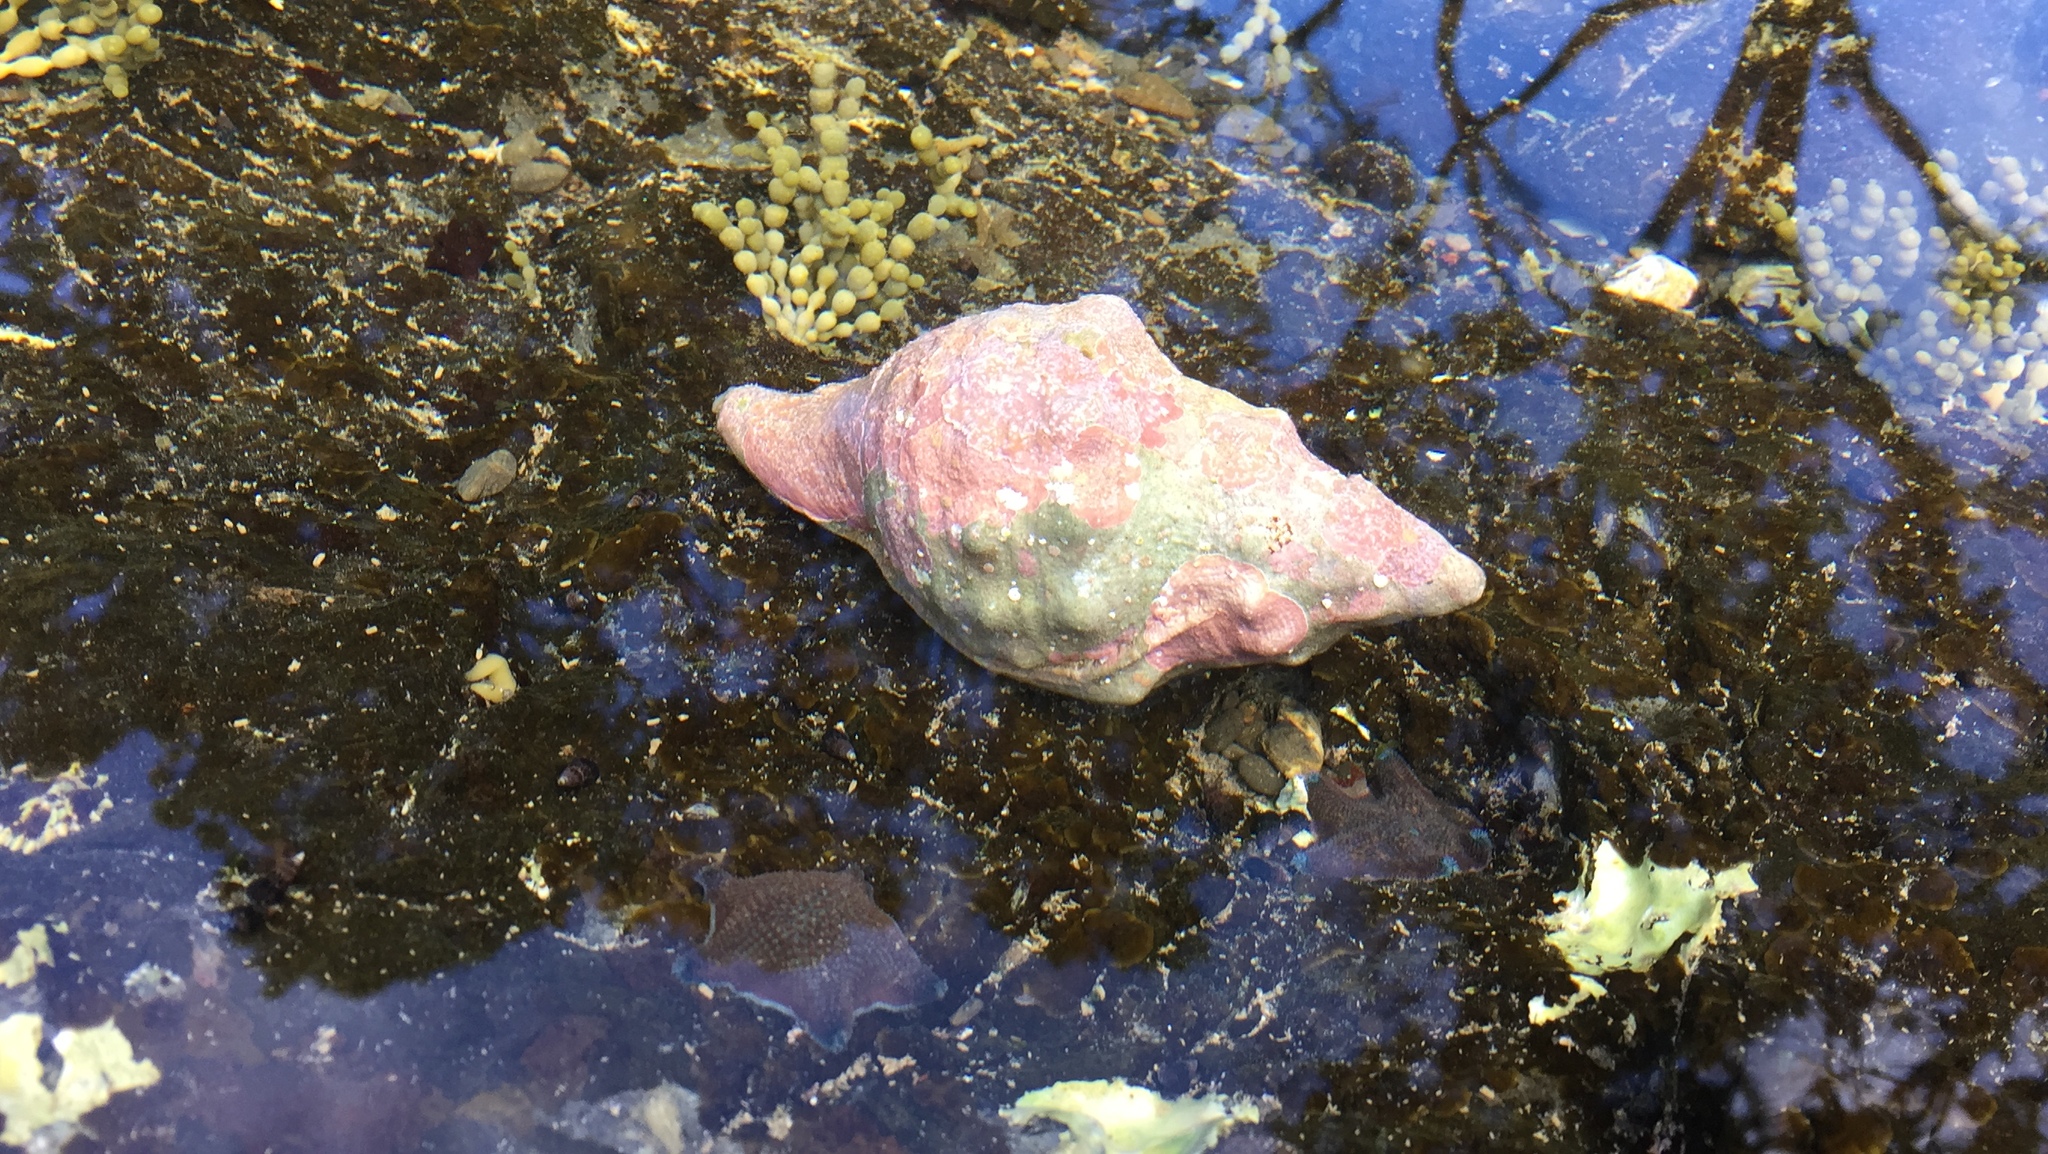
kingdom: Animalia
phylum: Mollusca
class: Gastropoda
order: Littorinimorpha
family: Charoniidae
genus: Charonia
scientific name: Charonia lampas
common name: Knobbed triton
